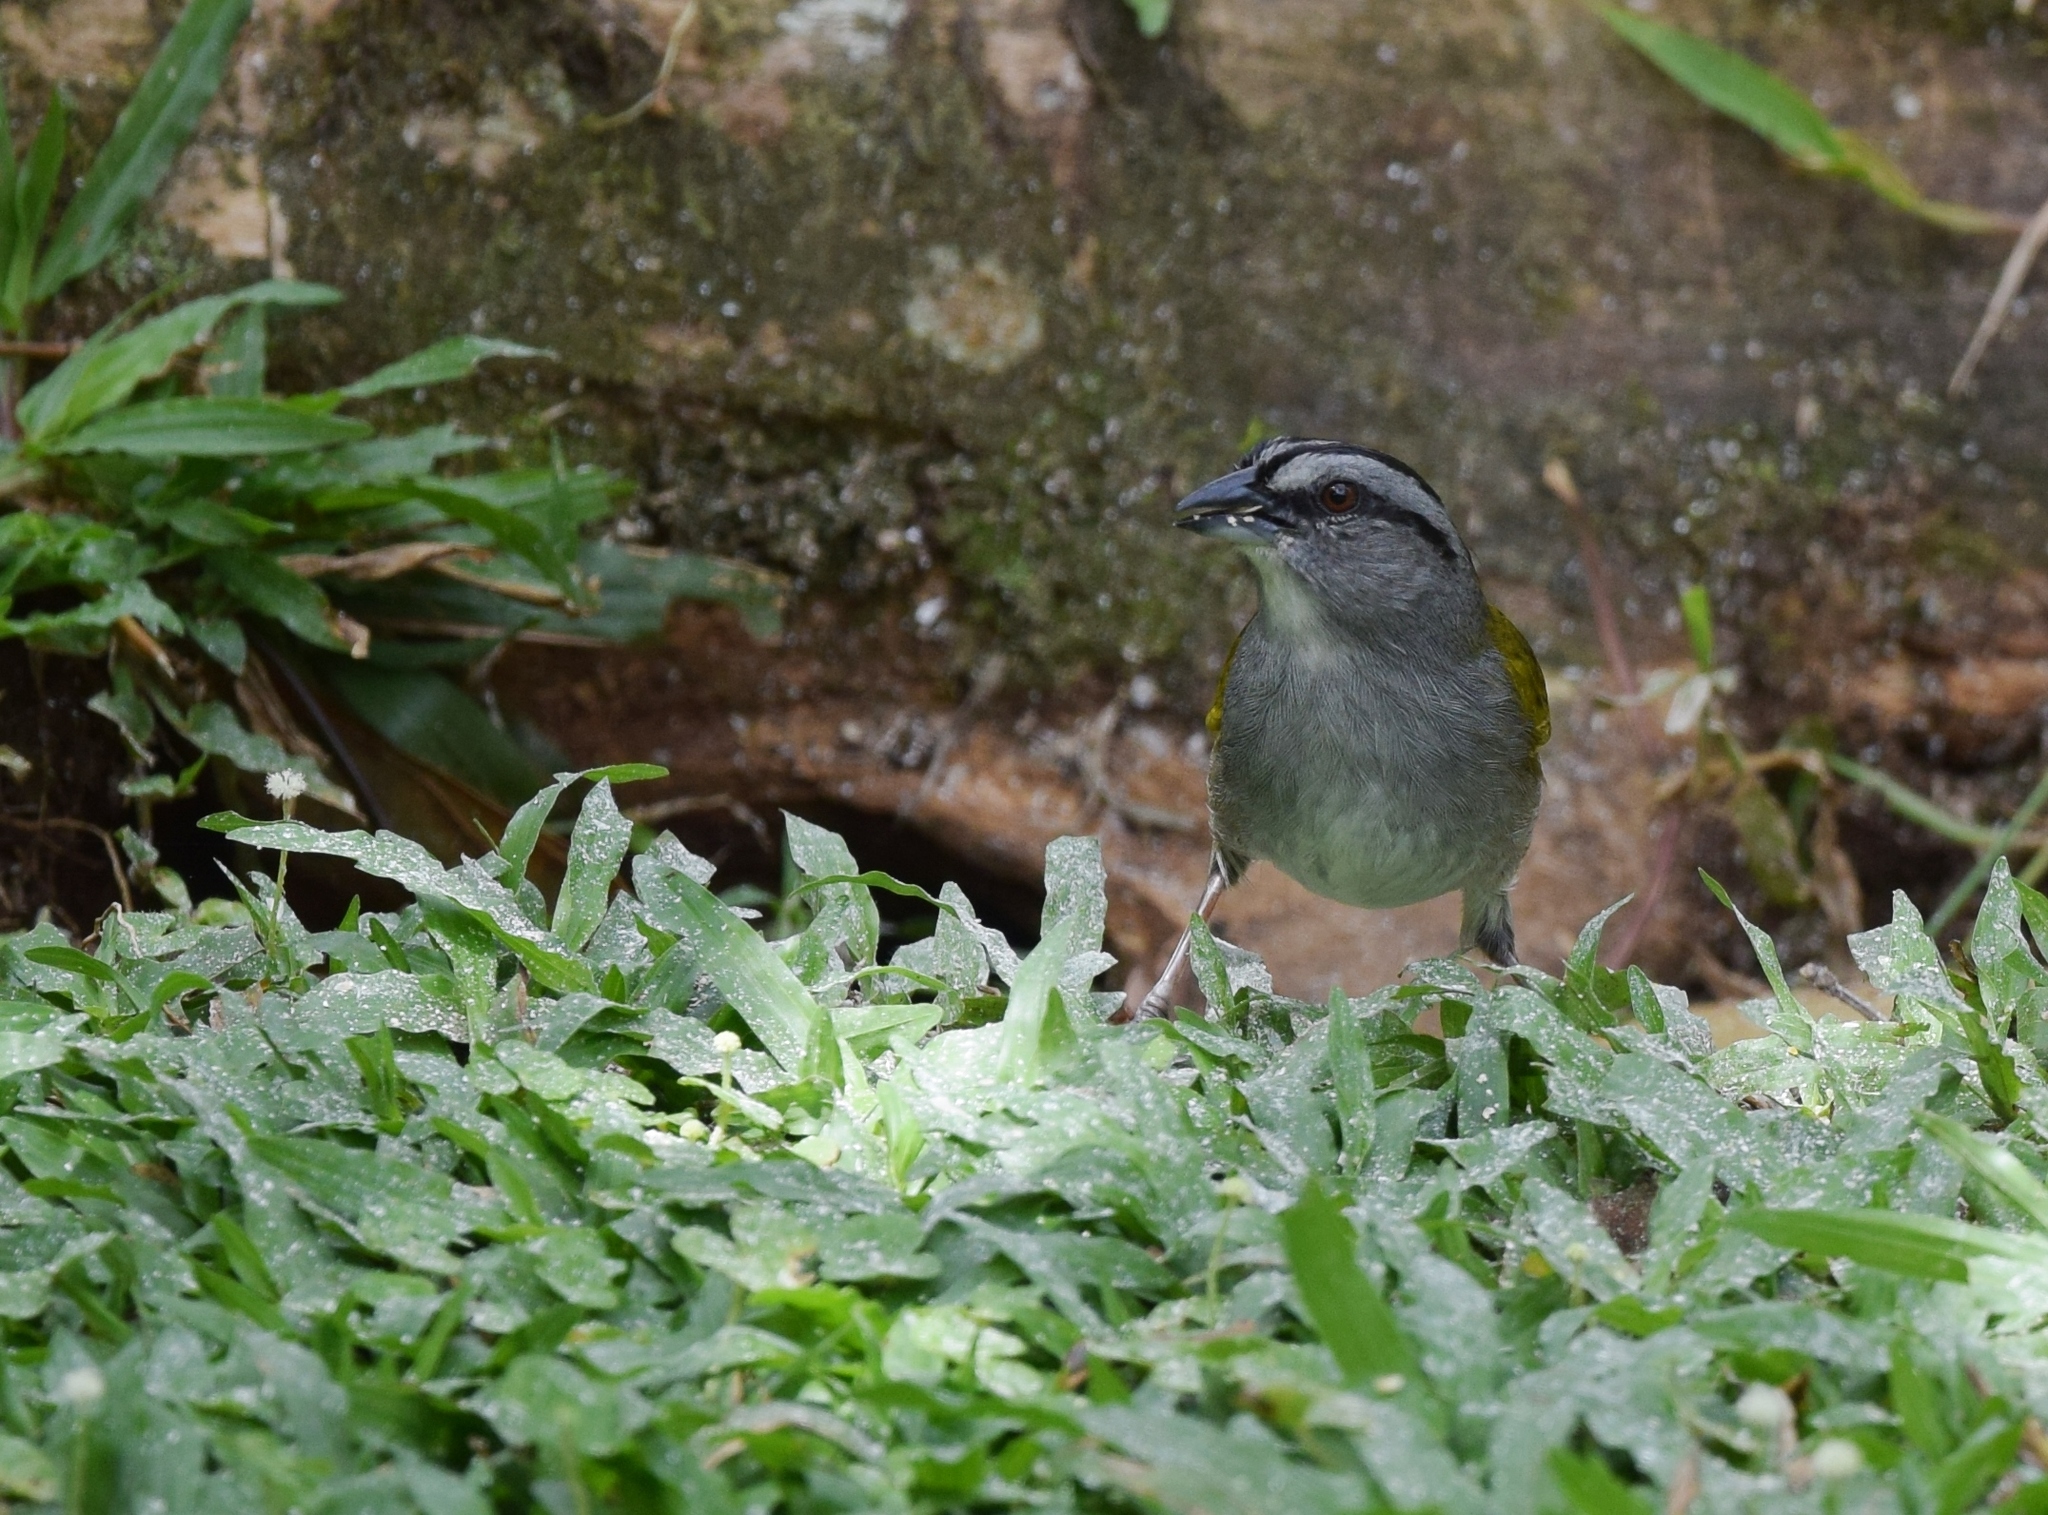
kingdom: Animalia
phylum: Chordata
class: Aves
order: Passeriformes
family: Passerellidae
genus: Arremonops
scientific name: Arremonops conirostris
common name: Black-striped sparrow
